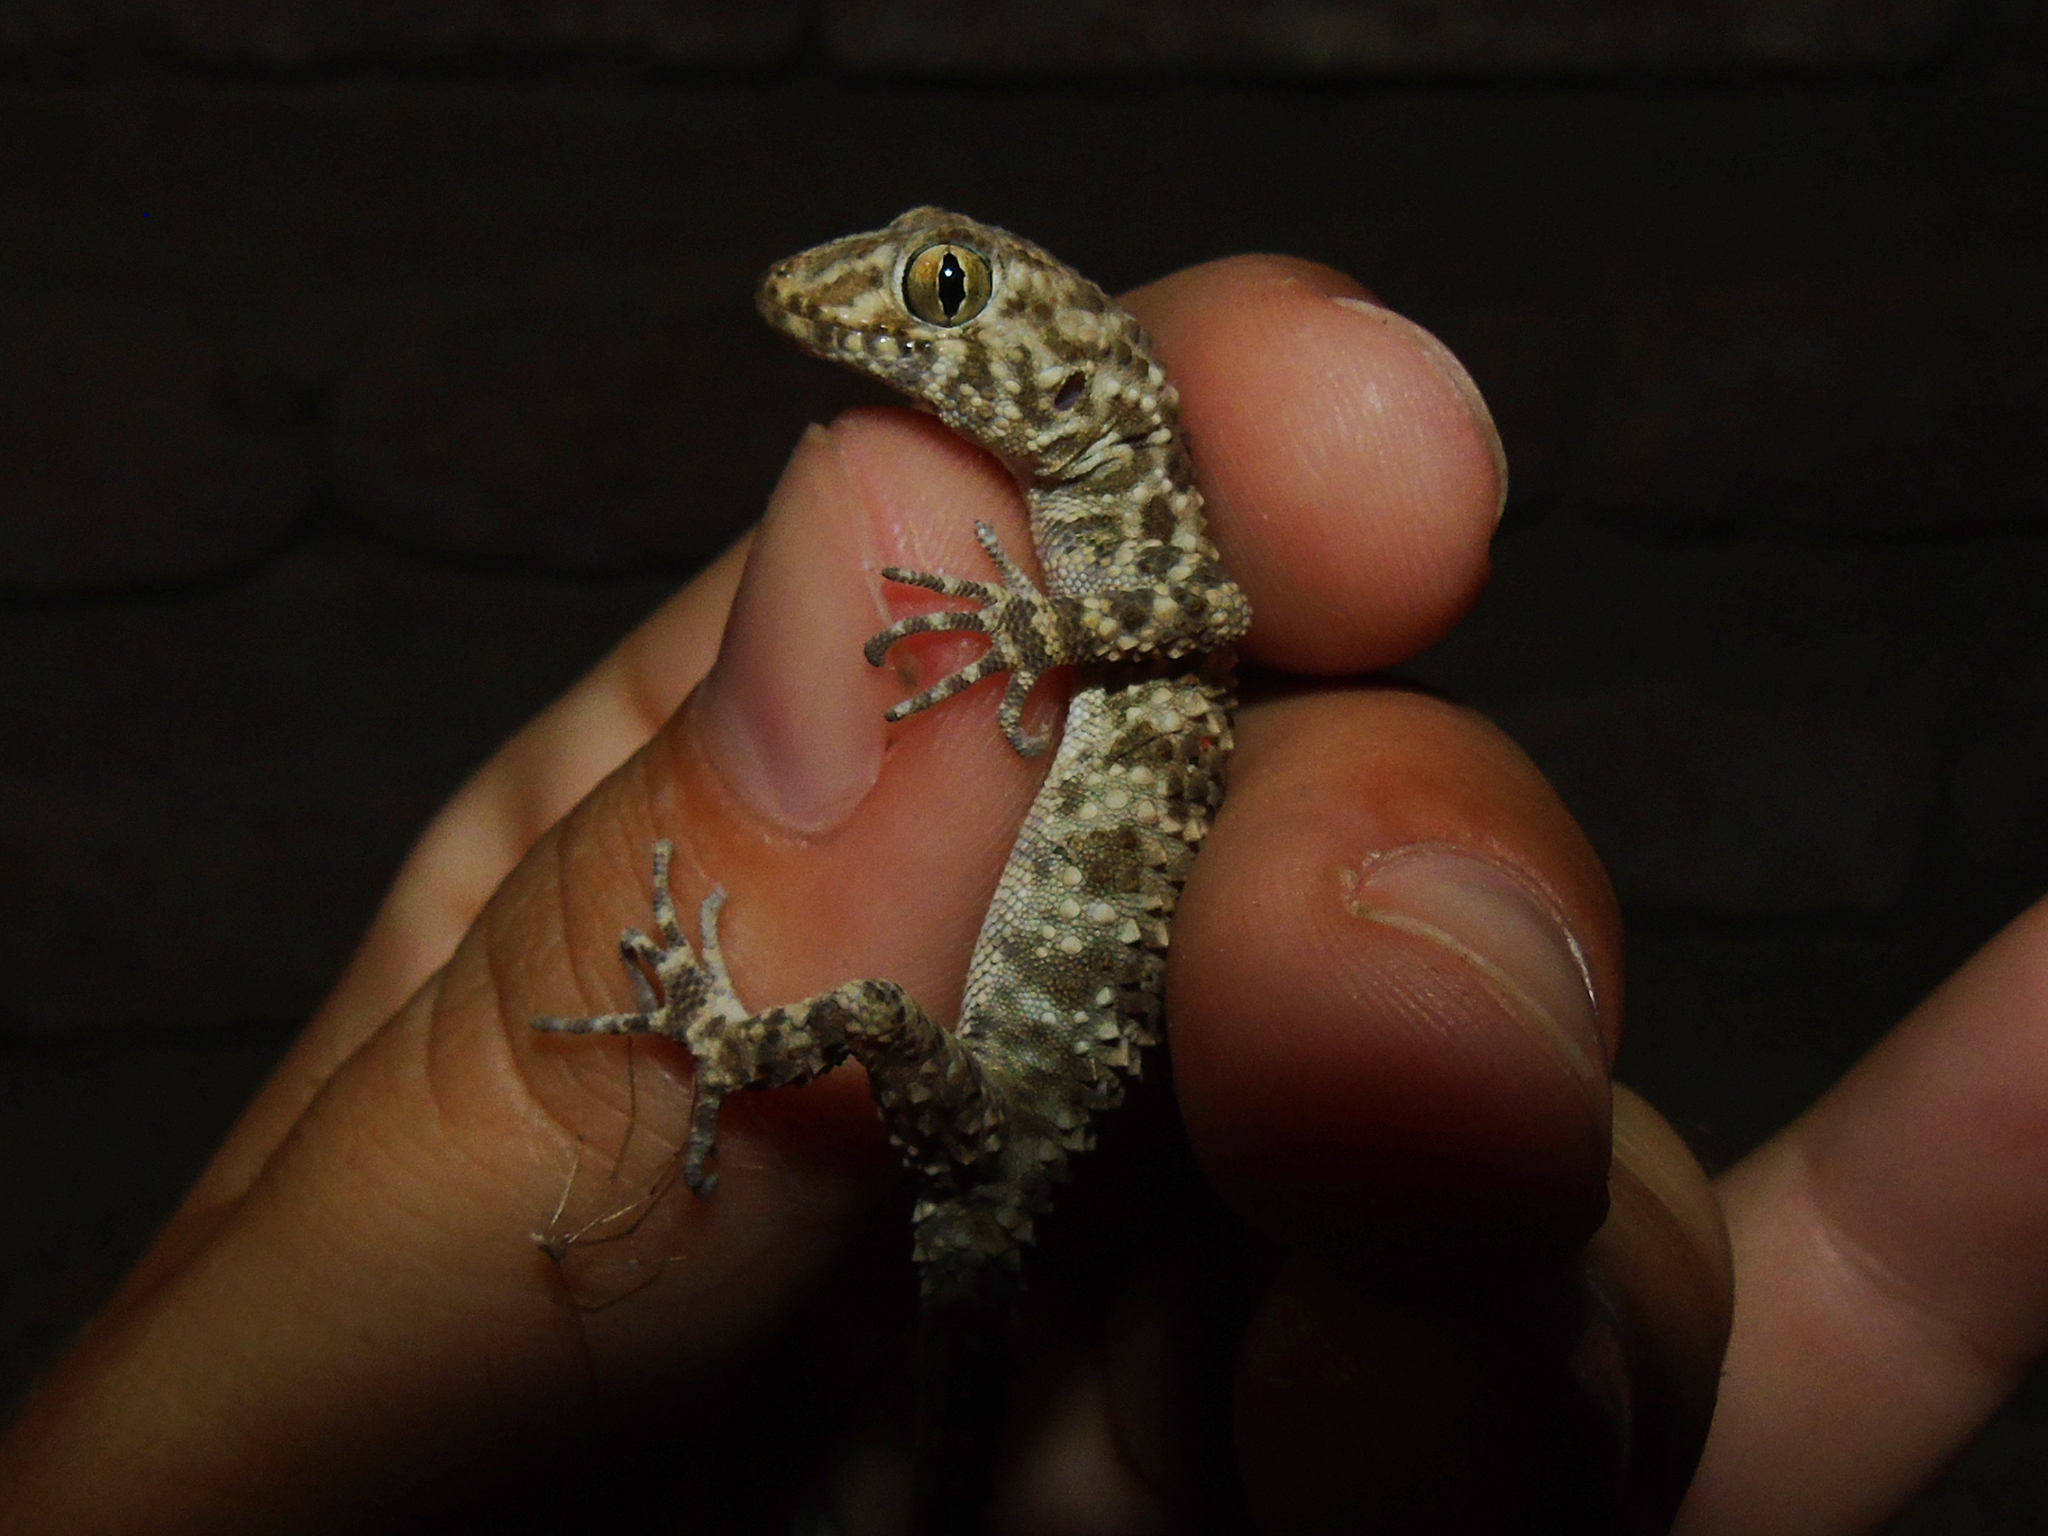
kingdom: Animalia
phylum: Chordata
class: Squamata
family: Gekkonidae
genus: Tenuidactylus
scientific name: Tenuidactylus caspius
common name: Caspian bent-toed gecko
